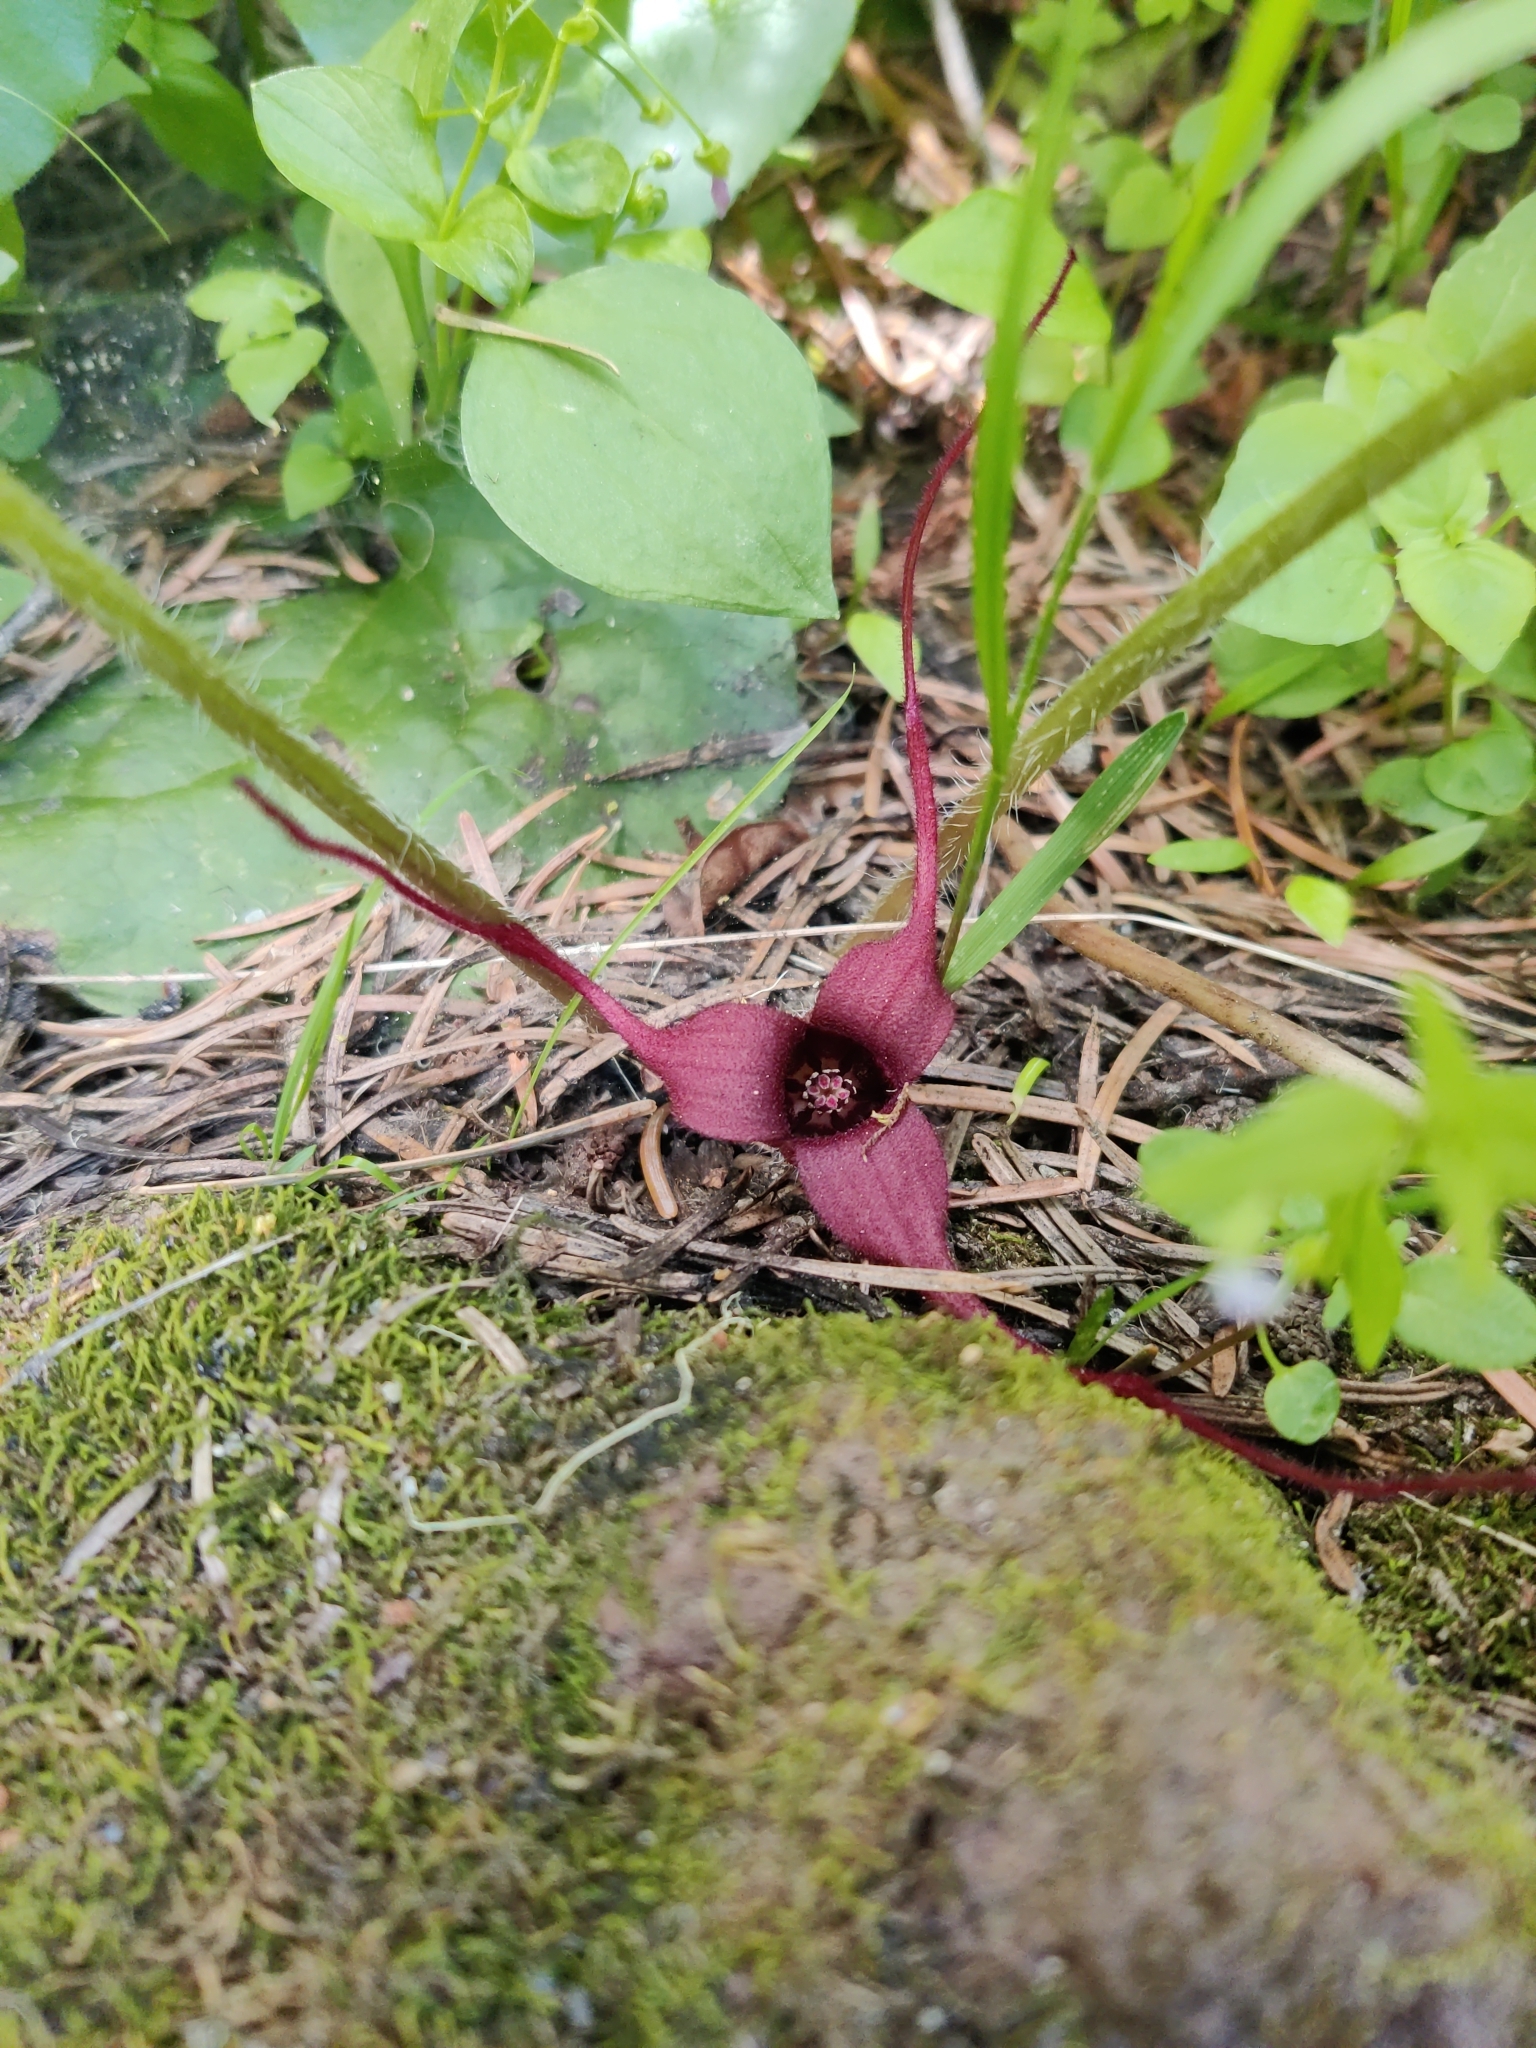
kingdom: Plantae
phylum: Tracheophyta
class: Magnoliopsida
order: Piperales
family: Aristolochiaceae
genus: Asarum
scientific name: Asarum caudatum
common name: Wild ginger
